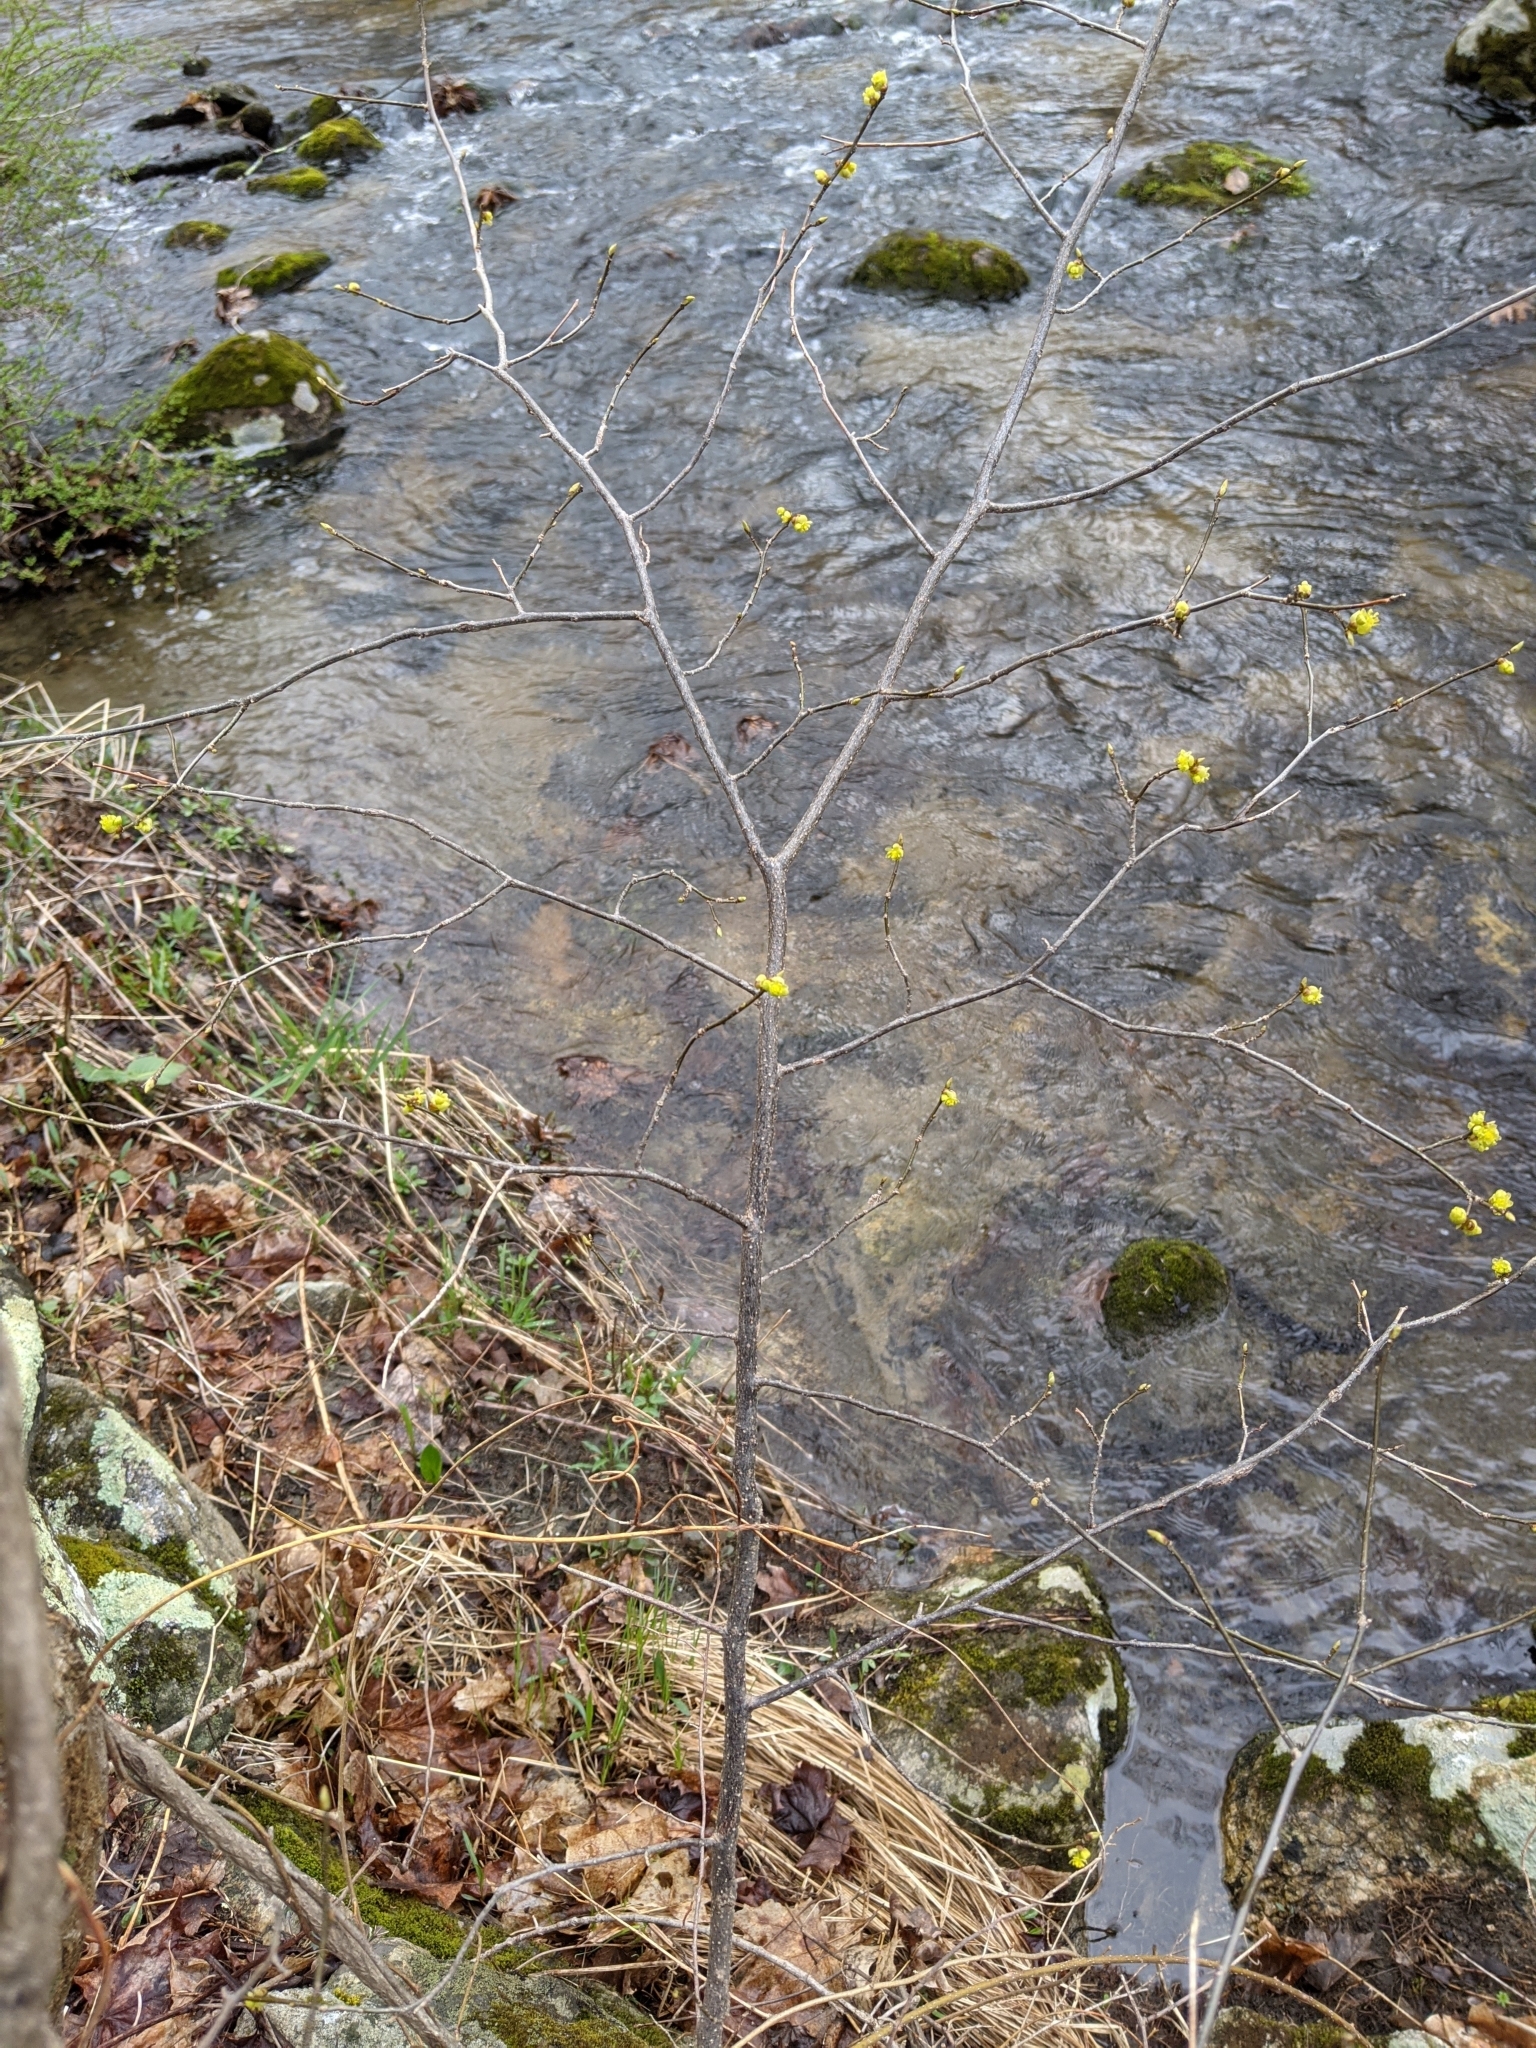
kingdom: Plantae
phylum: Tracheophyta
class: Magnoliopsida
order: Laurales
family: Lauraceae
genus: Lindera
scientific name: Lindera benzoin
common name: Spicebush
